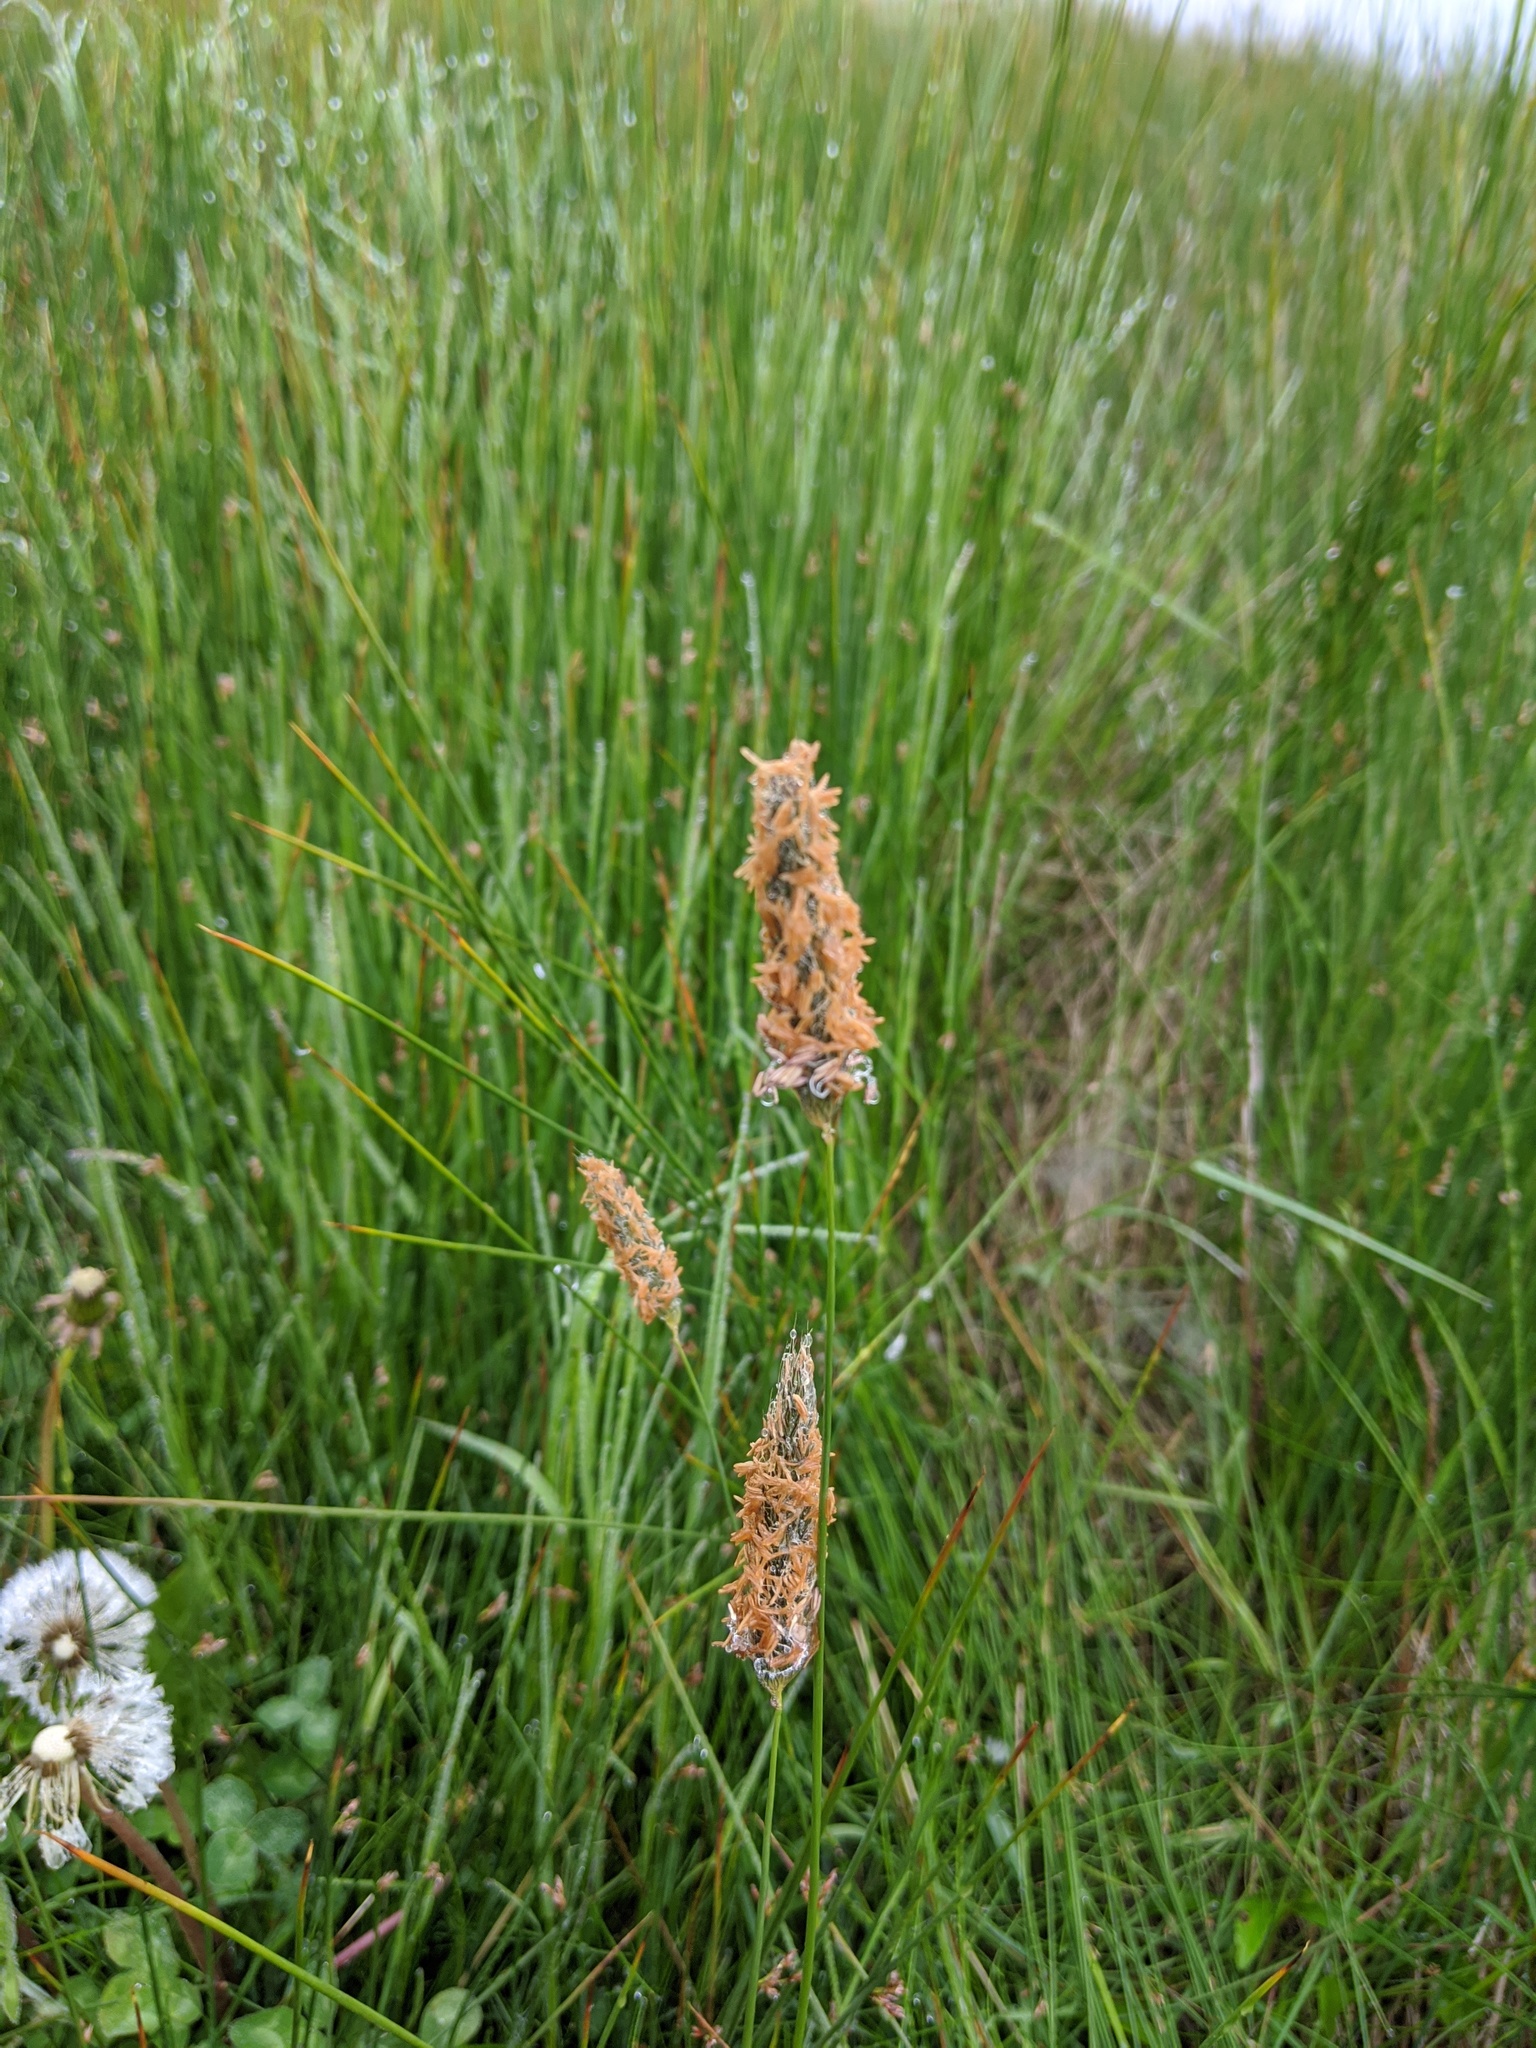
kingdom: Plantae
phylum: Tracheophyta
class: Liliopsida
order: Poales
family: Poaceae
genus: Alopecurus
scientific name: Alopecurus pratensis
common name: Meadow foxtail
